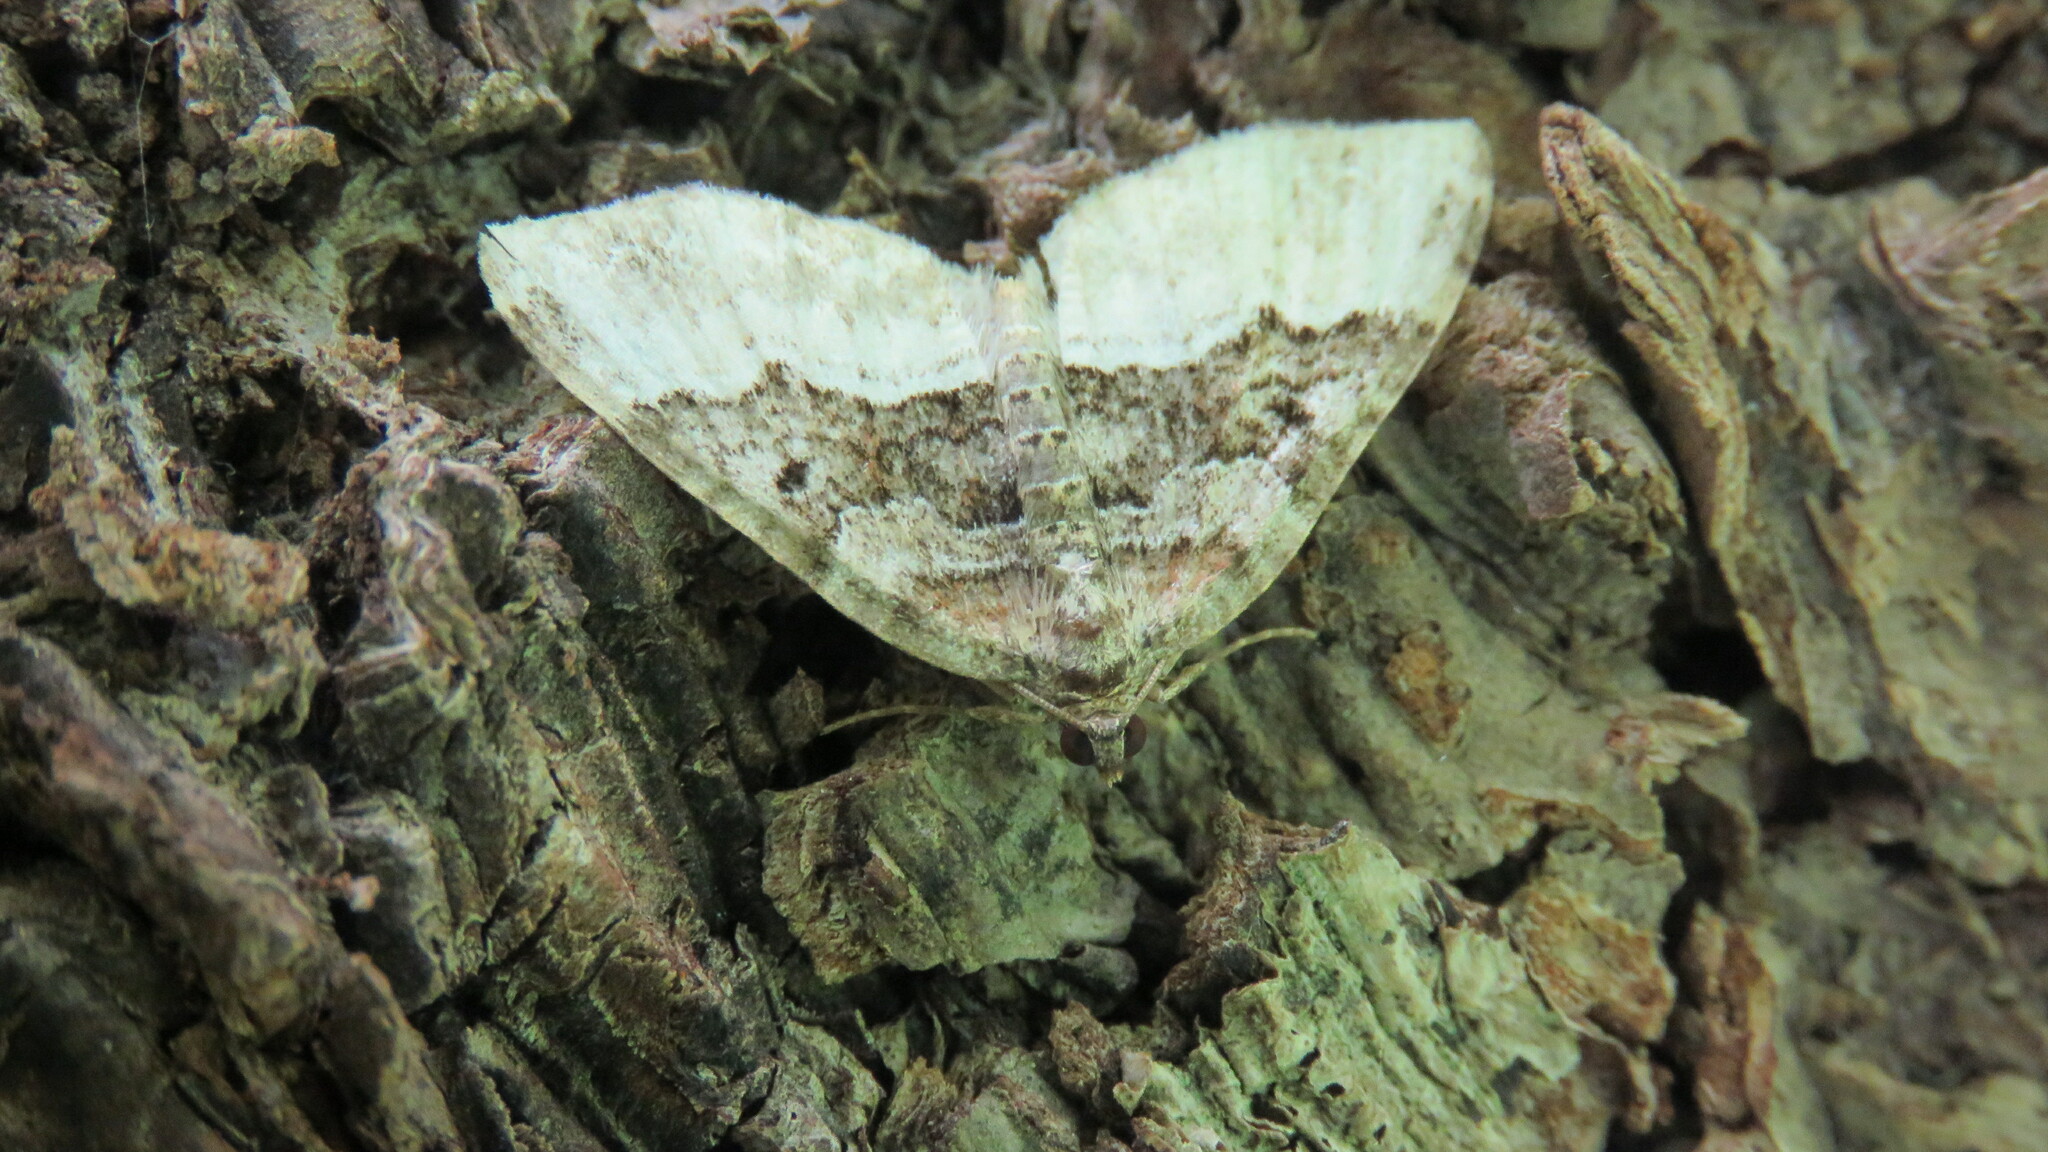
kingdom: Animalia
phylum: Arthropoda
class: Insecta
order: Lepidoptera
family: Geometridae
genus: Euphyia
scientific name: Euphyia intermediata
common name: Sharp-angled carpet
